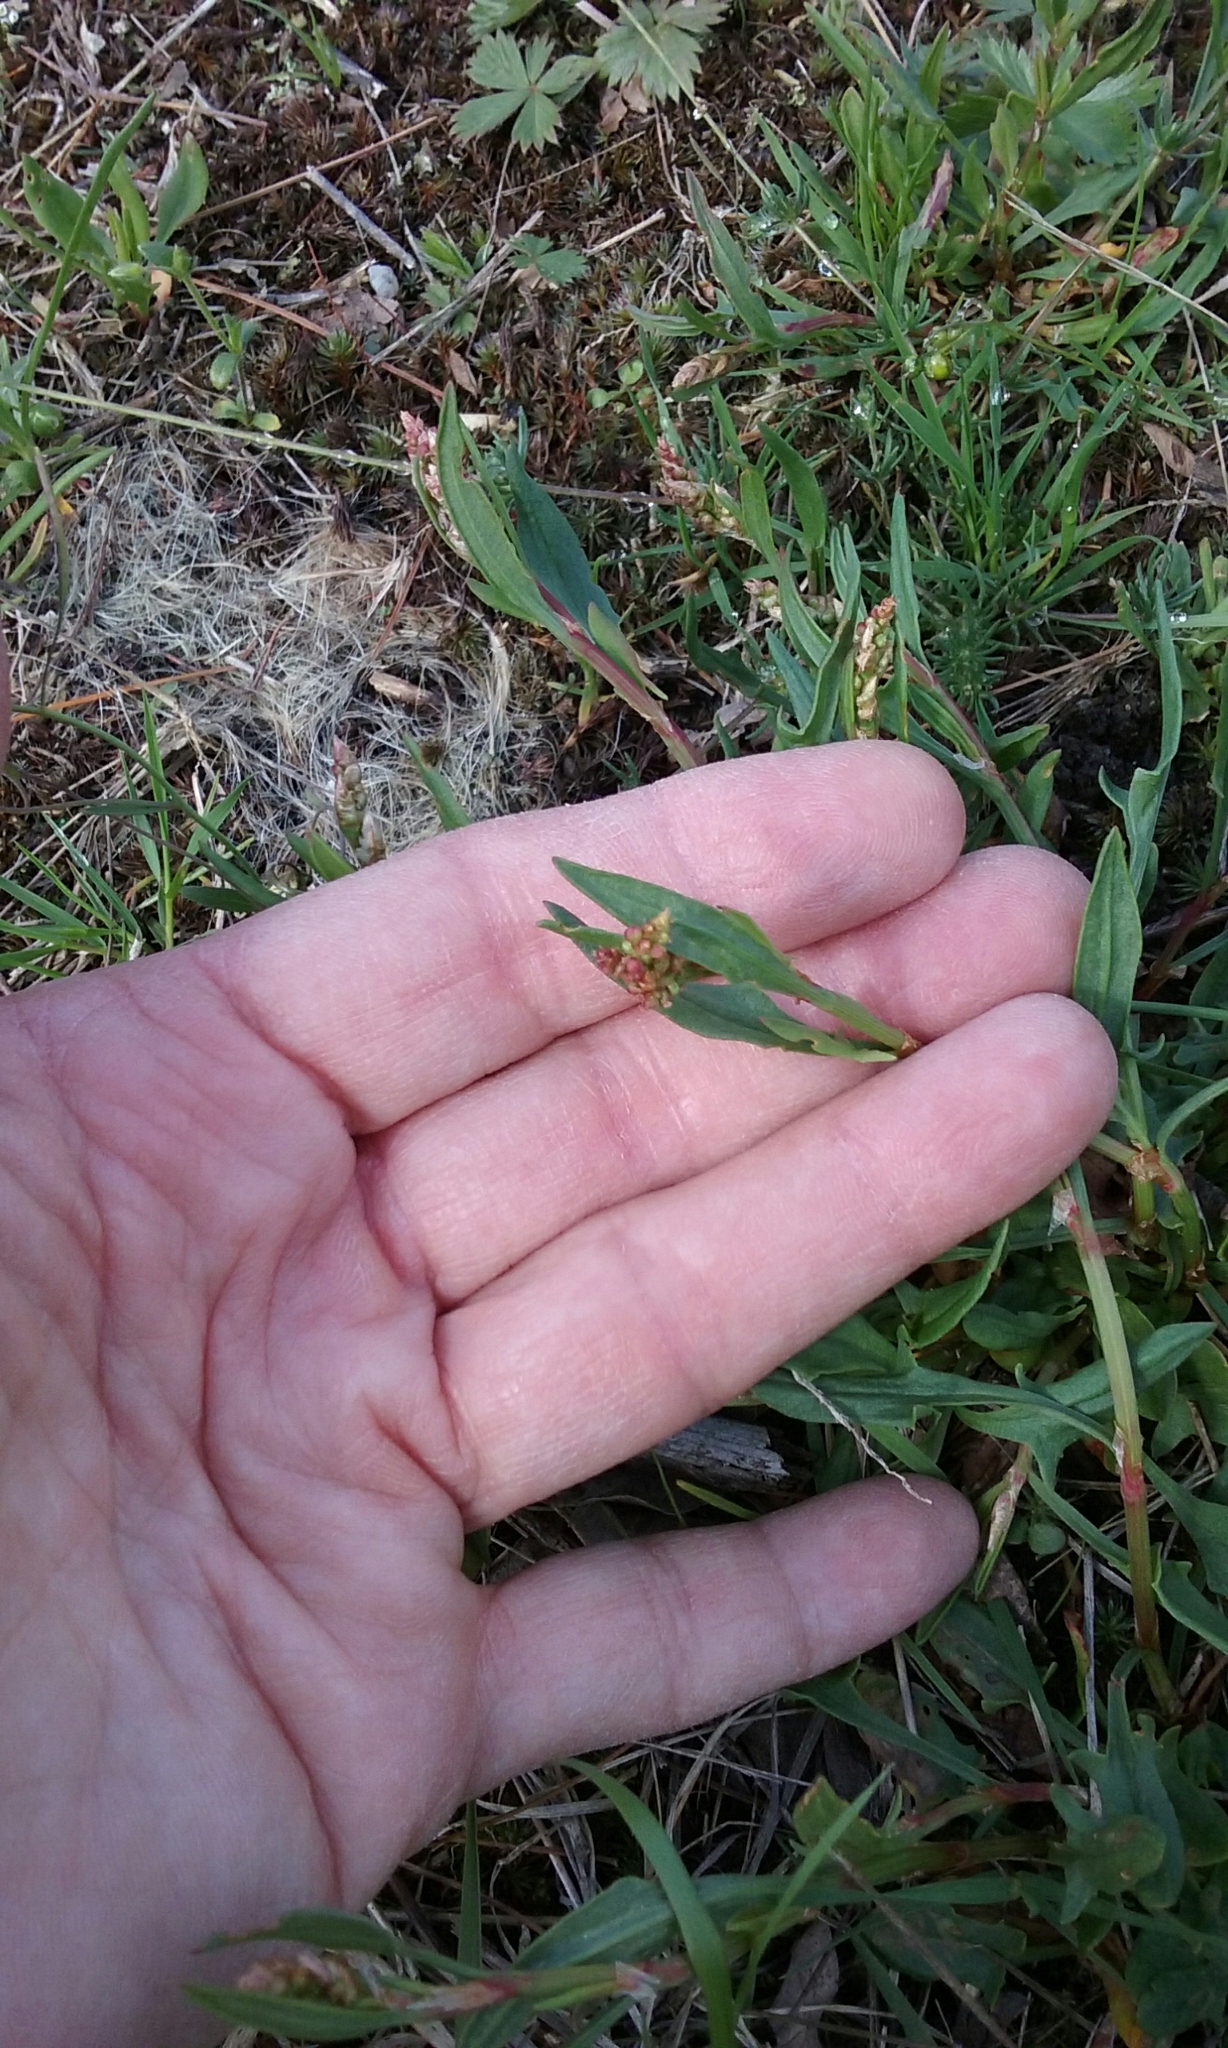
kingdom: Plantae
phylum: Tracheophyta
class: Magnoliopsida
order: Caryophyllales
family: Polygonaceae
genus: Rumex
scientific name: Rumex acetosella
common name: Common sheep sorrel
